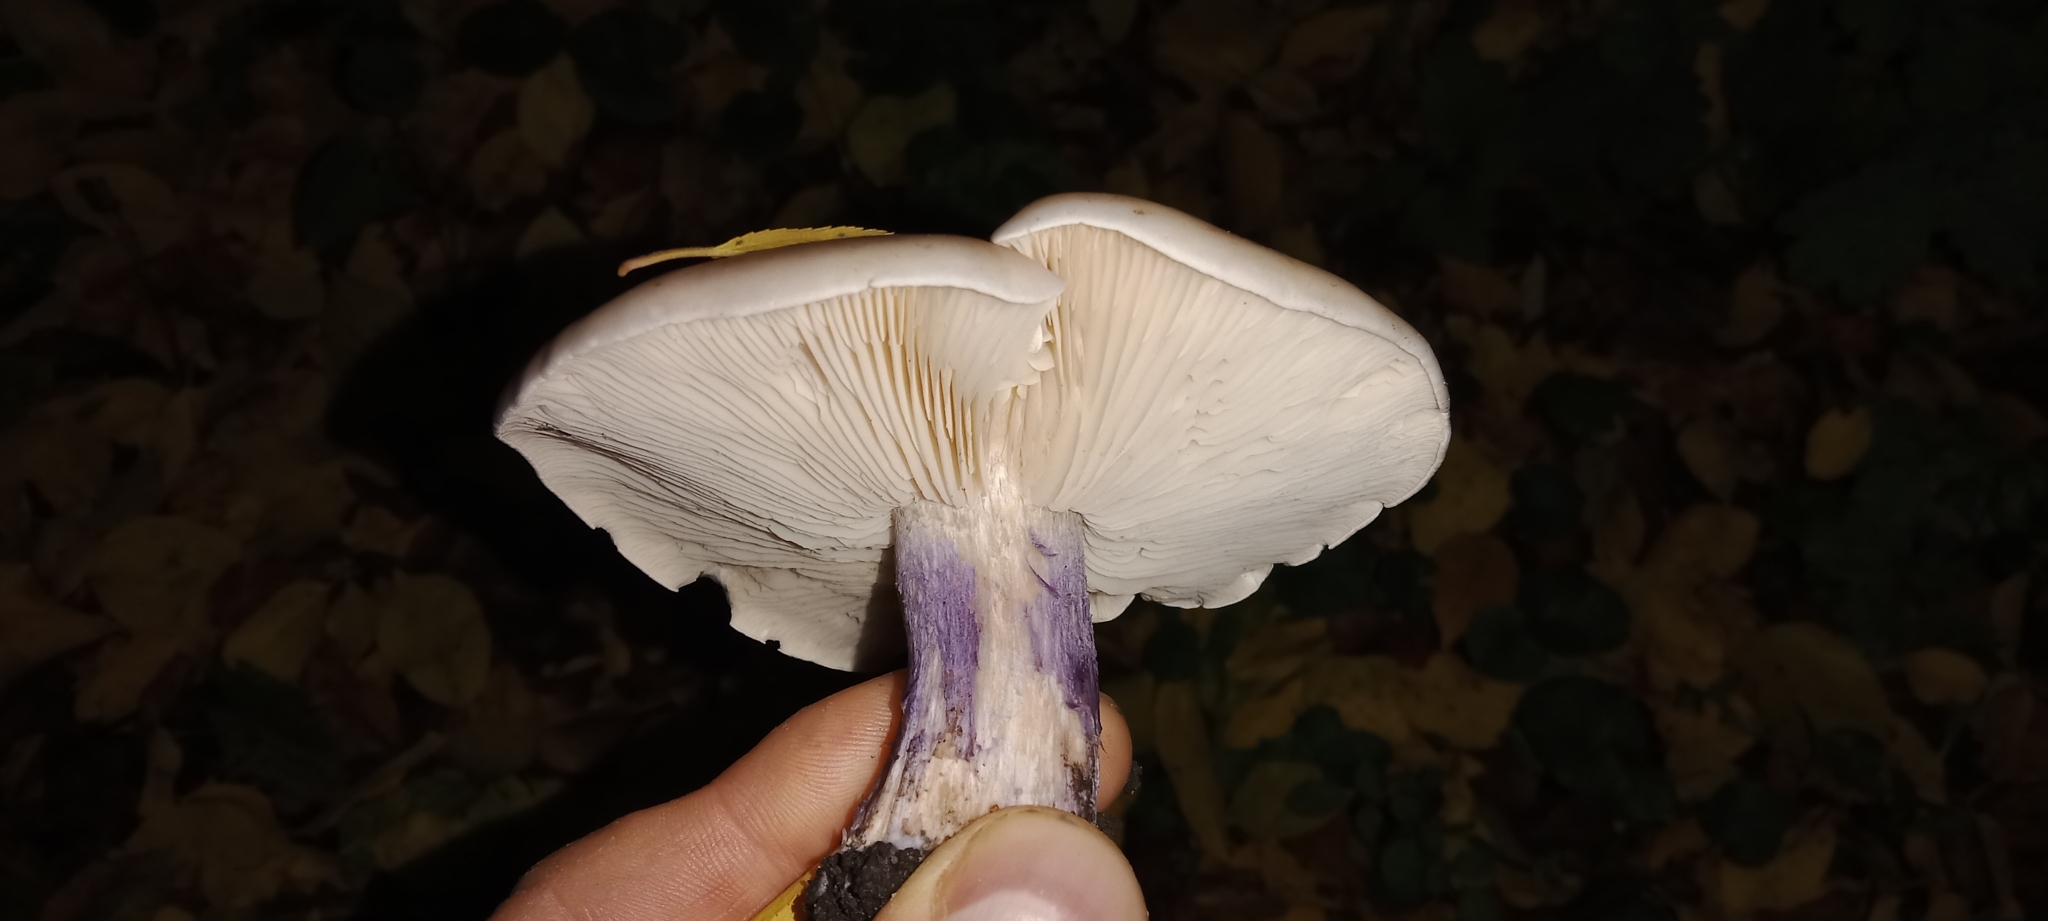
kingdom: Fungi
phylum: Basidiomycota
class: Agaricomycetes
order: Agaricales
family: Omphalotaceae
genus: Collybiopsis
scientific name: Collybiopsis peronata
